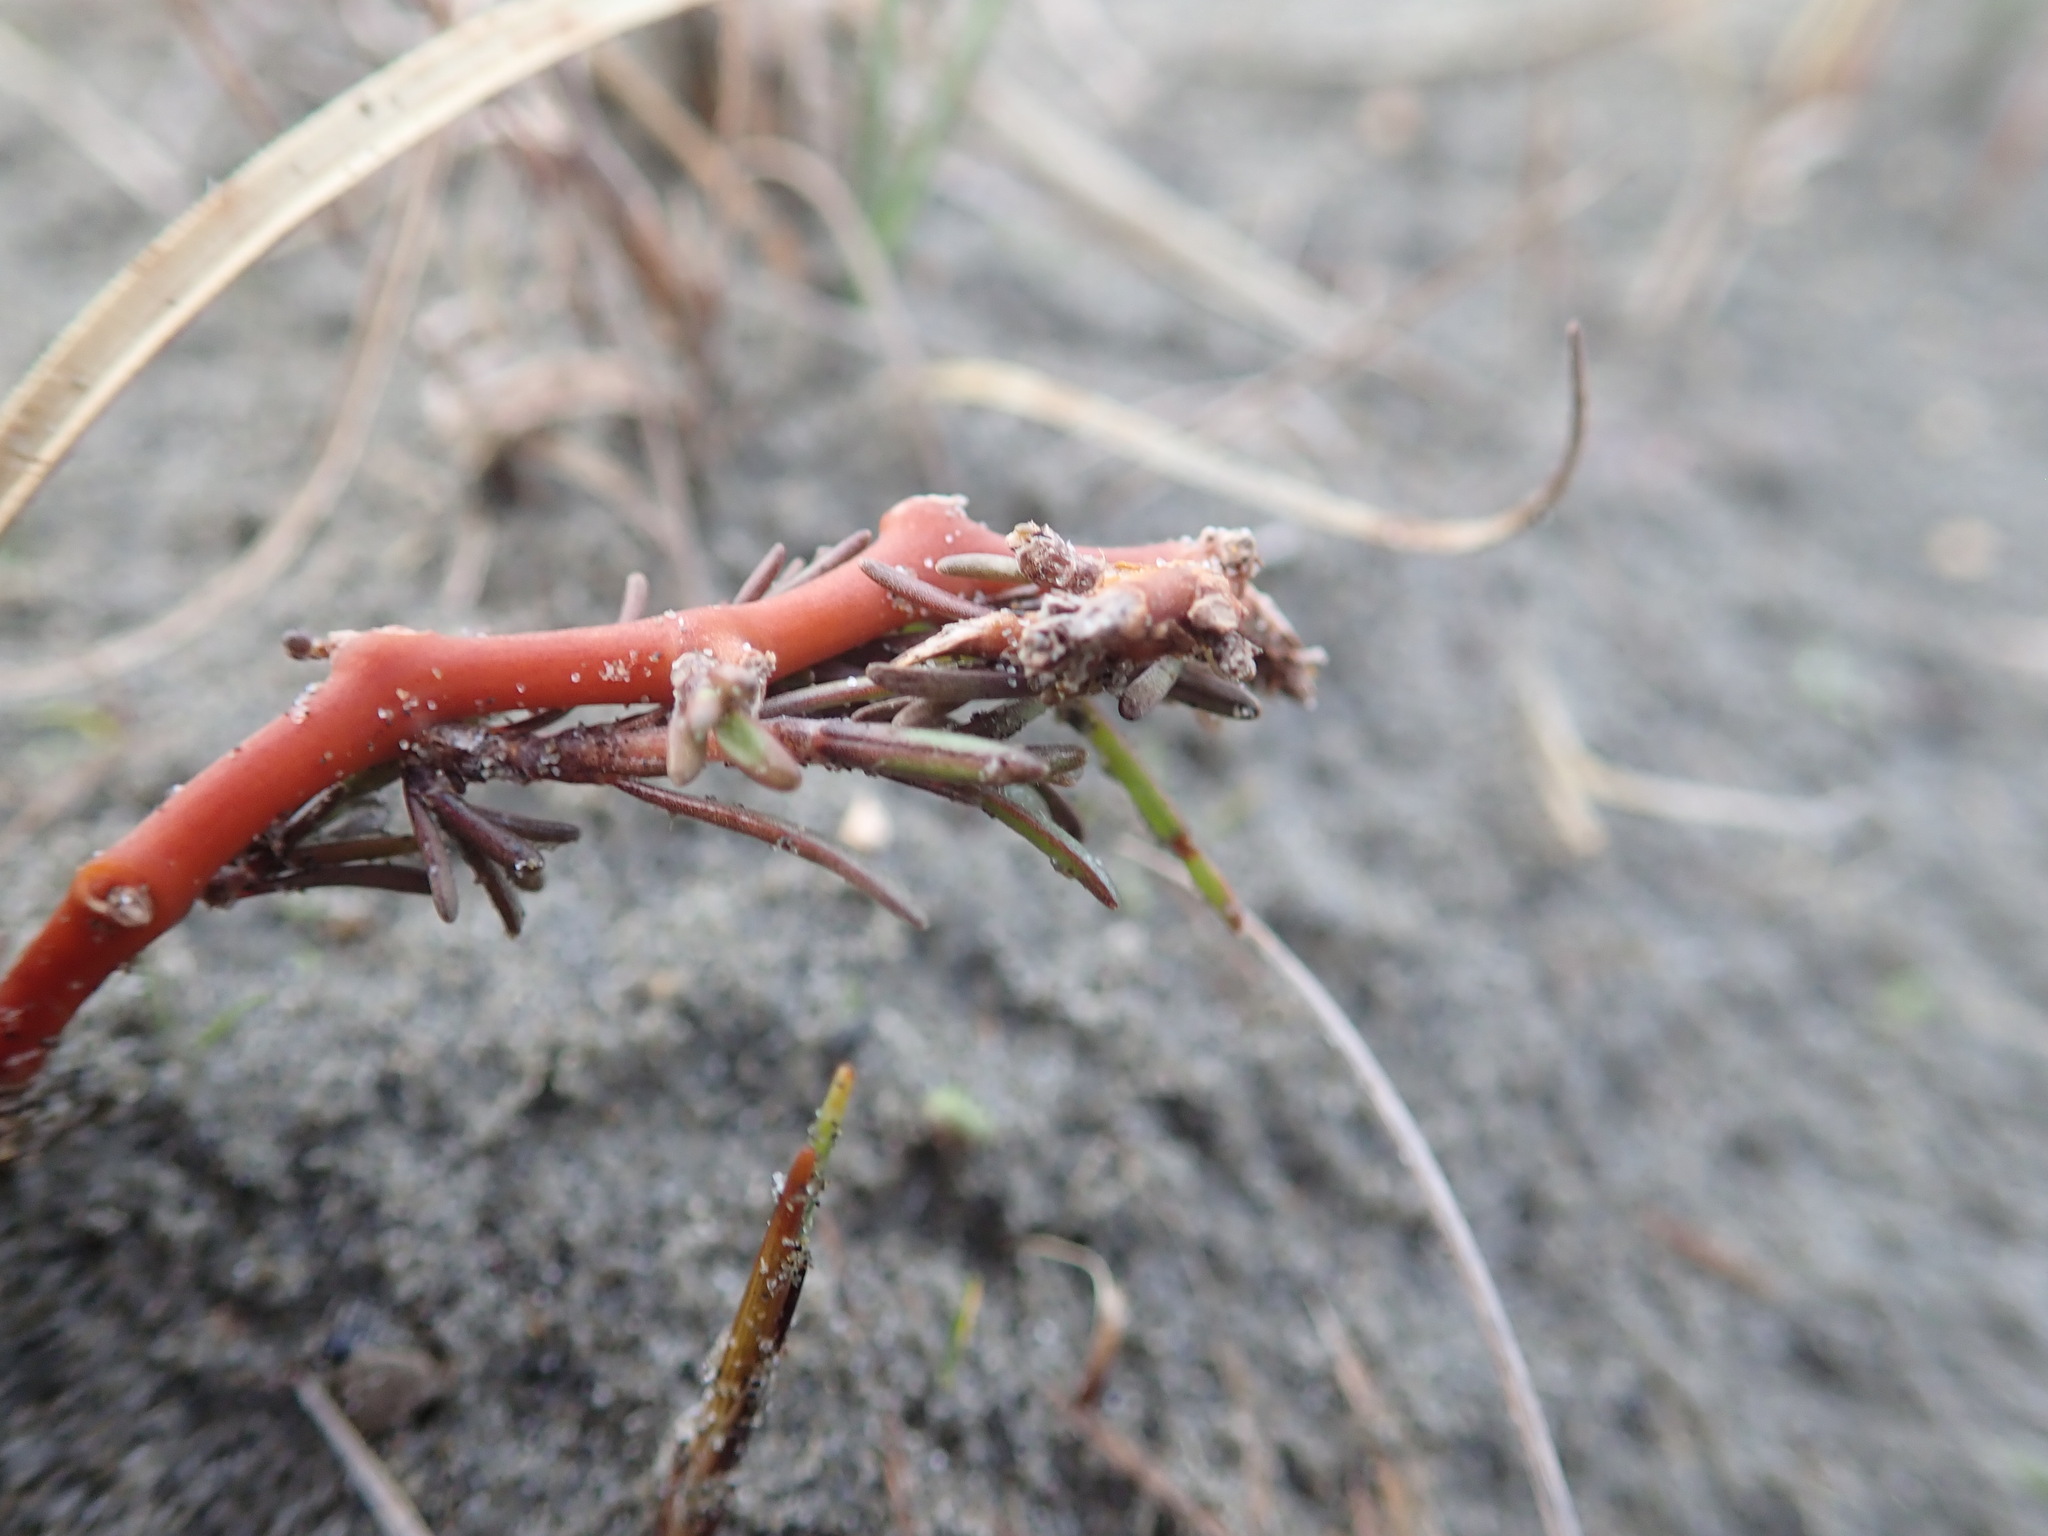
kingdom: Plantae
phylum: Tracheophyta
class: Magnoliopsida
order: Gentianales
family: Rubiaceae
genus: Coprosma
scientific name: Coprosma acerosa
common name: Sand coprosma
